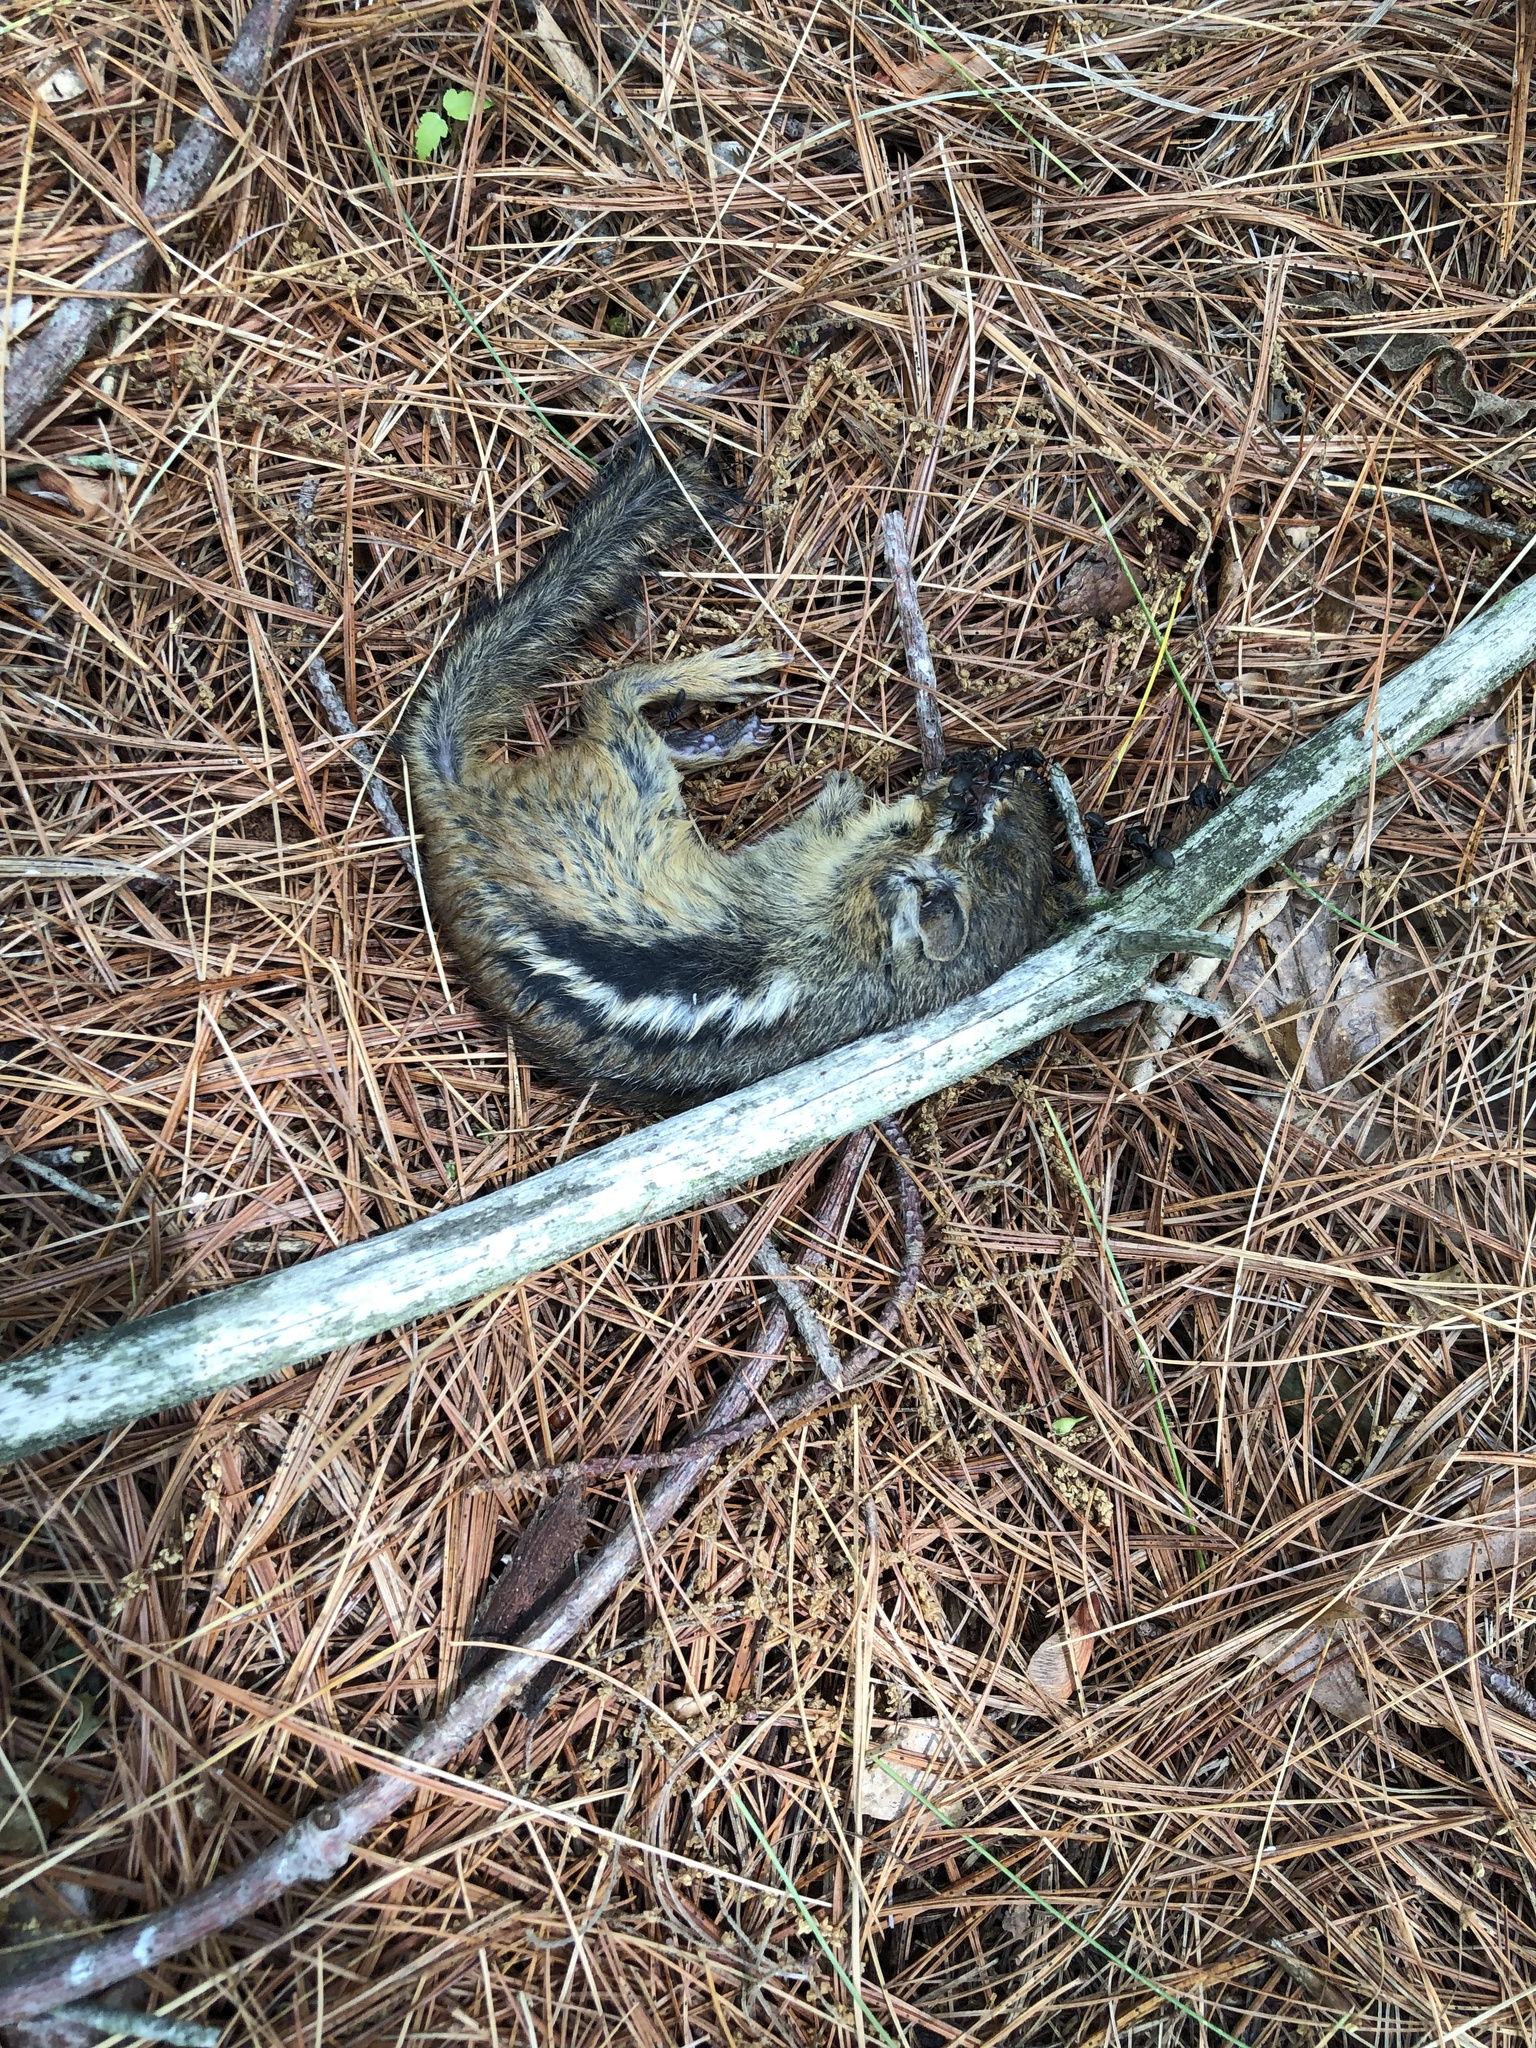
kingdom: Animalia
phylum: Chordata
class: Mammalia
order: Rodentia
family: Sciuridae
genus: Tamias
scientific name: Tamias striatus
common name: Eastern chipmunk
